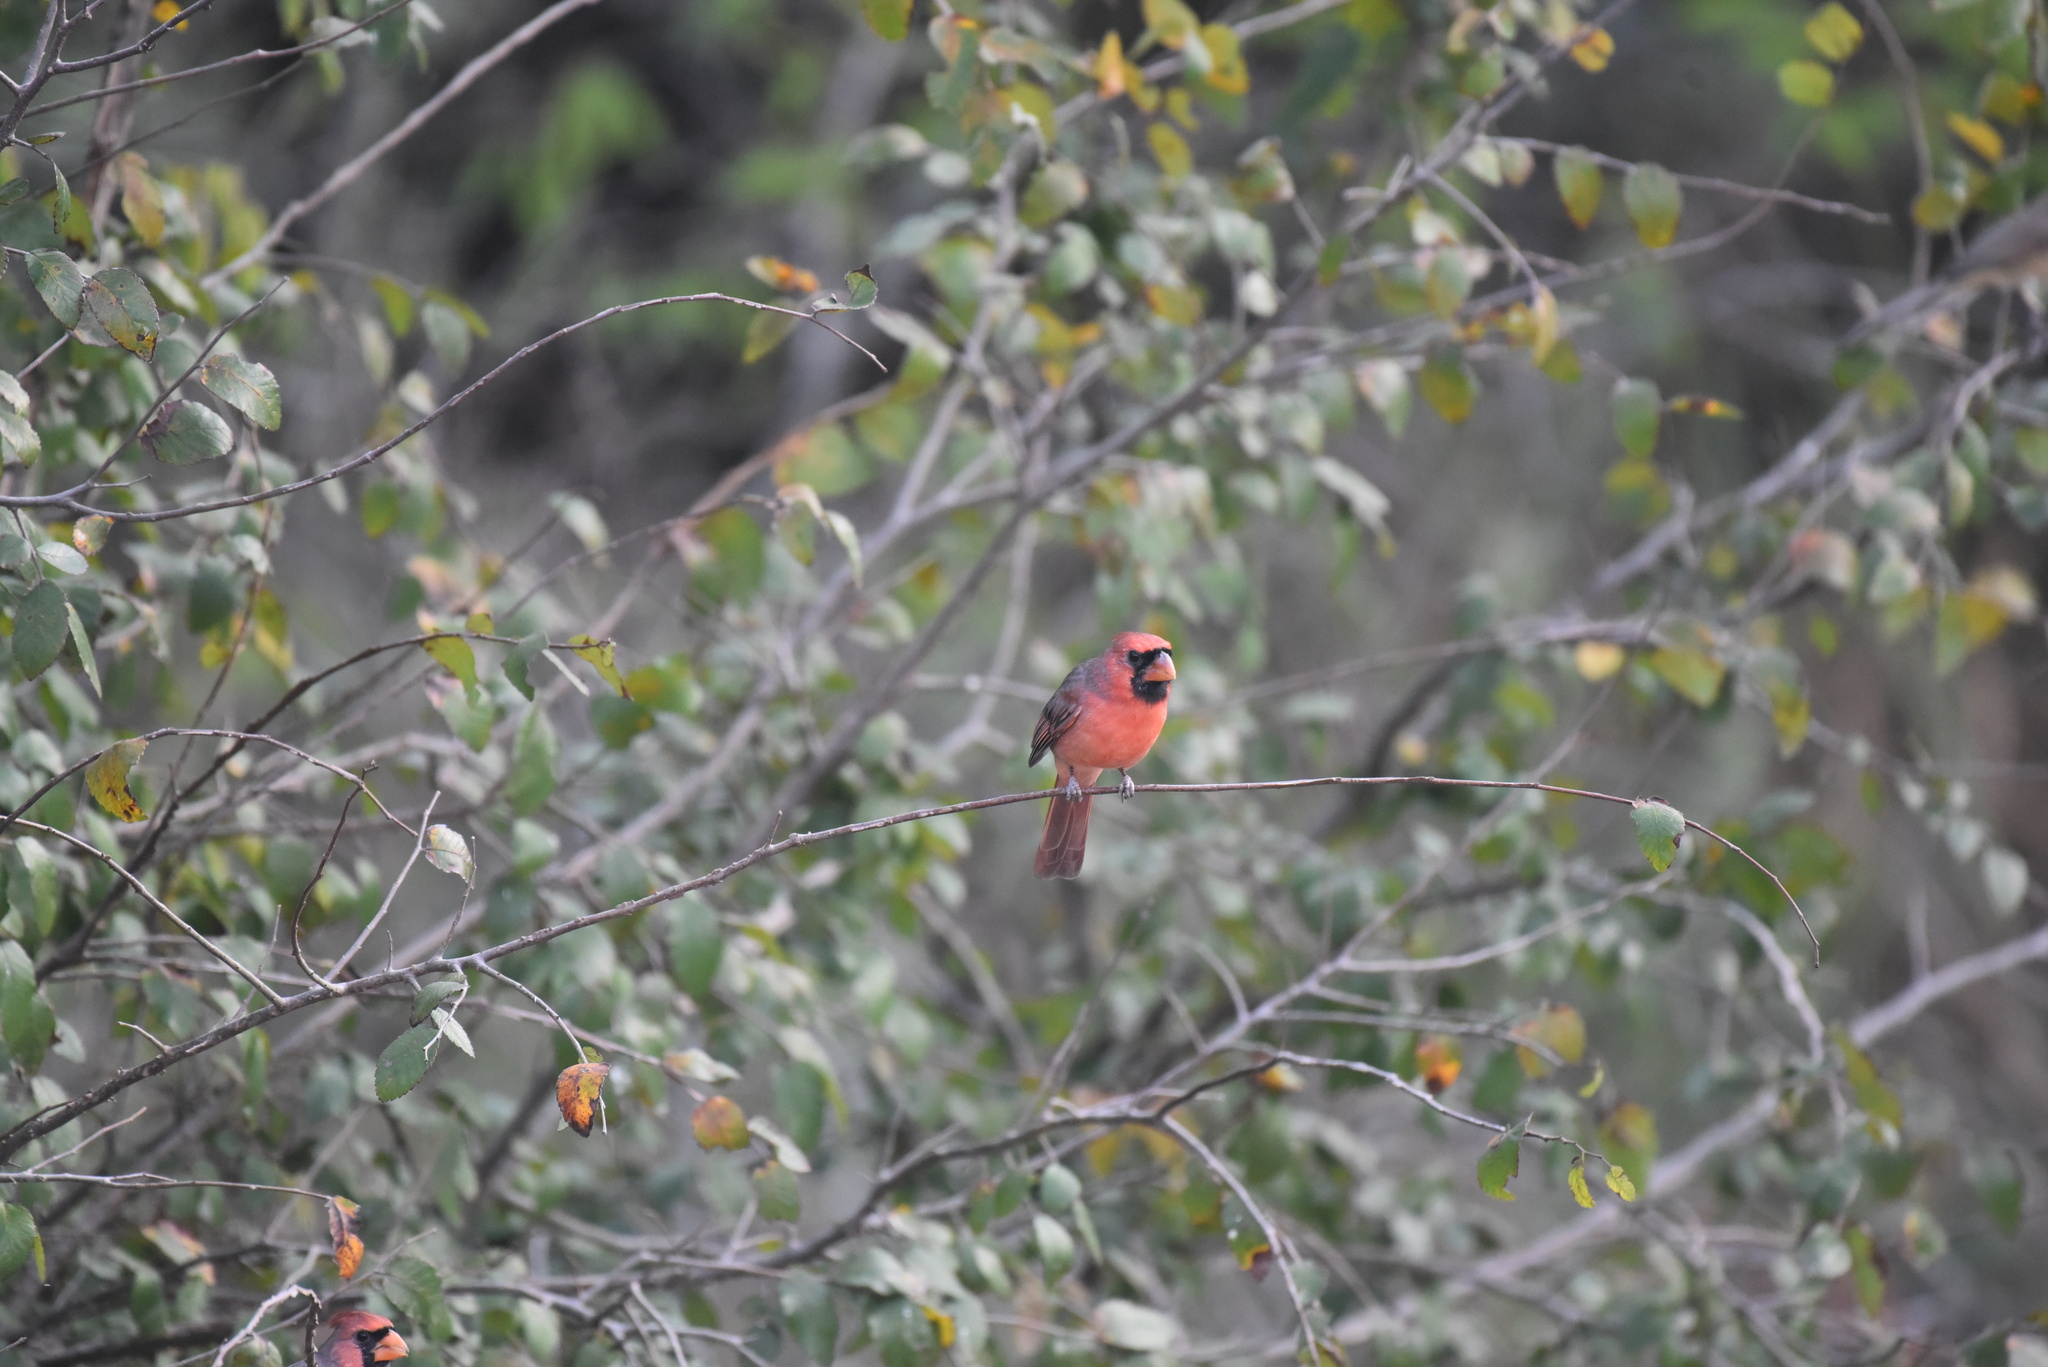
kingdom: Animalia
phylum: Chordata
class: Aves
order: Passeriformes
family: Cardinalidae
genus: Cardinalis
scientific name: Cardinalis cardinalis
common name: Northern cardinal
